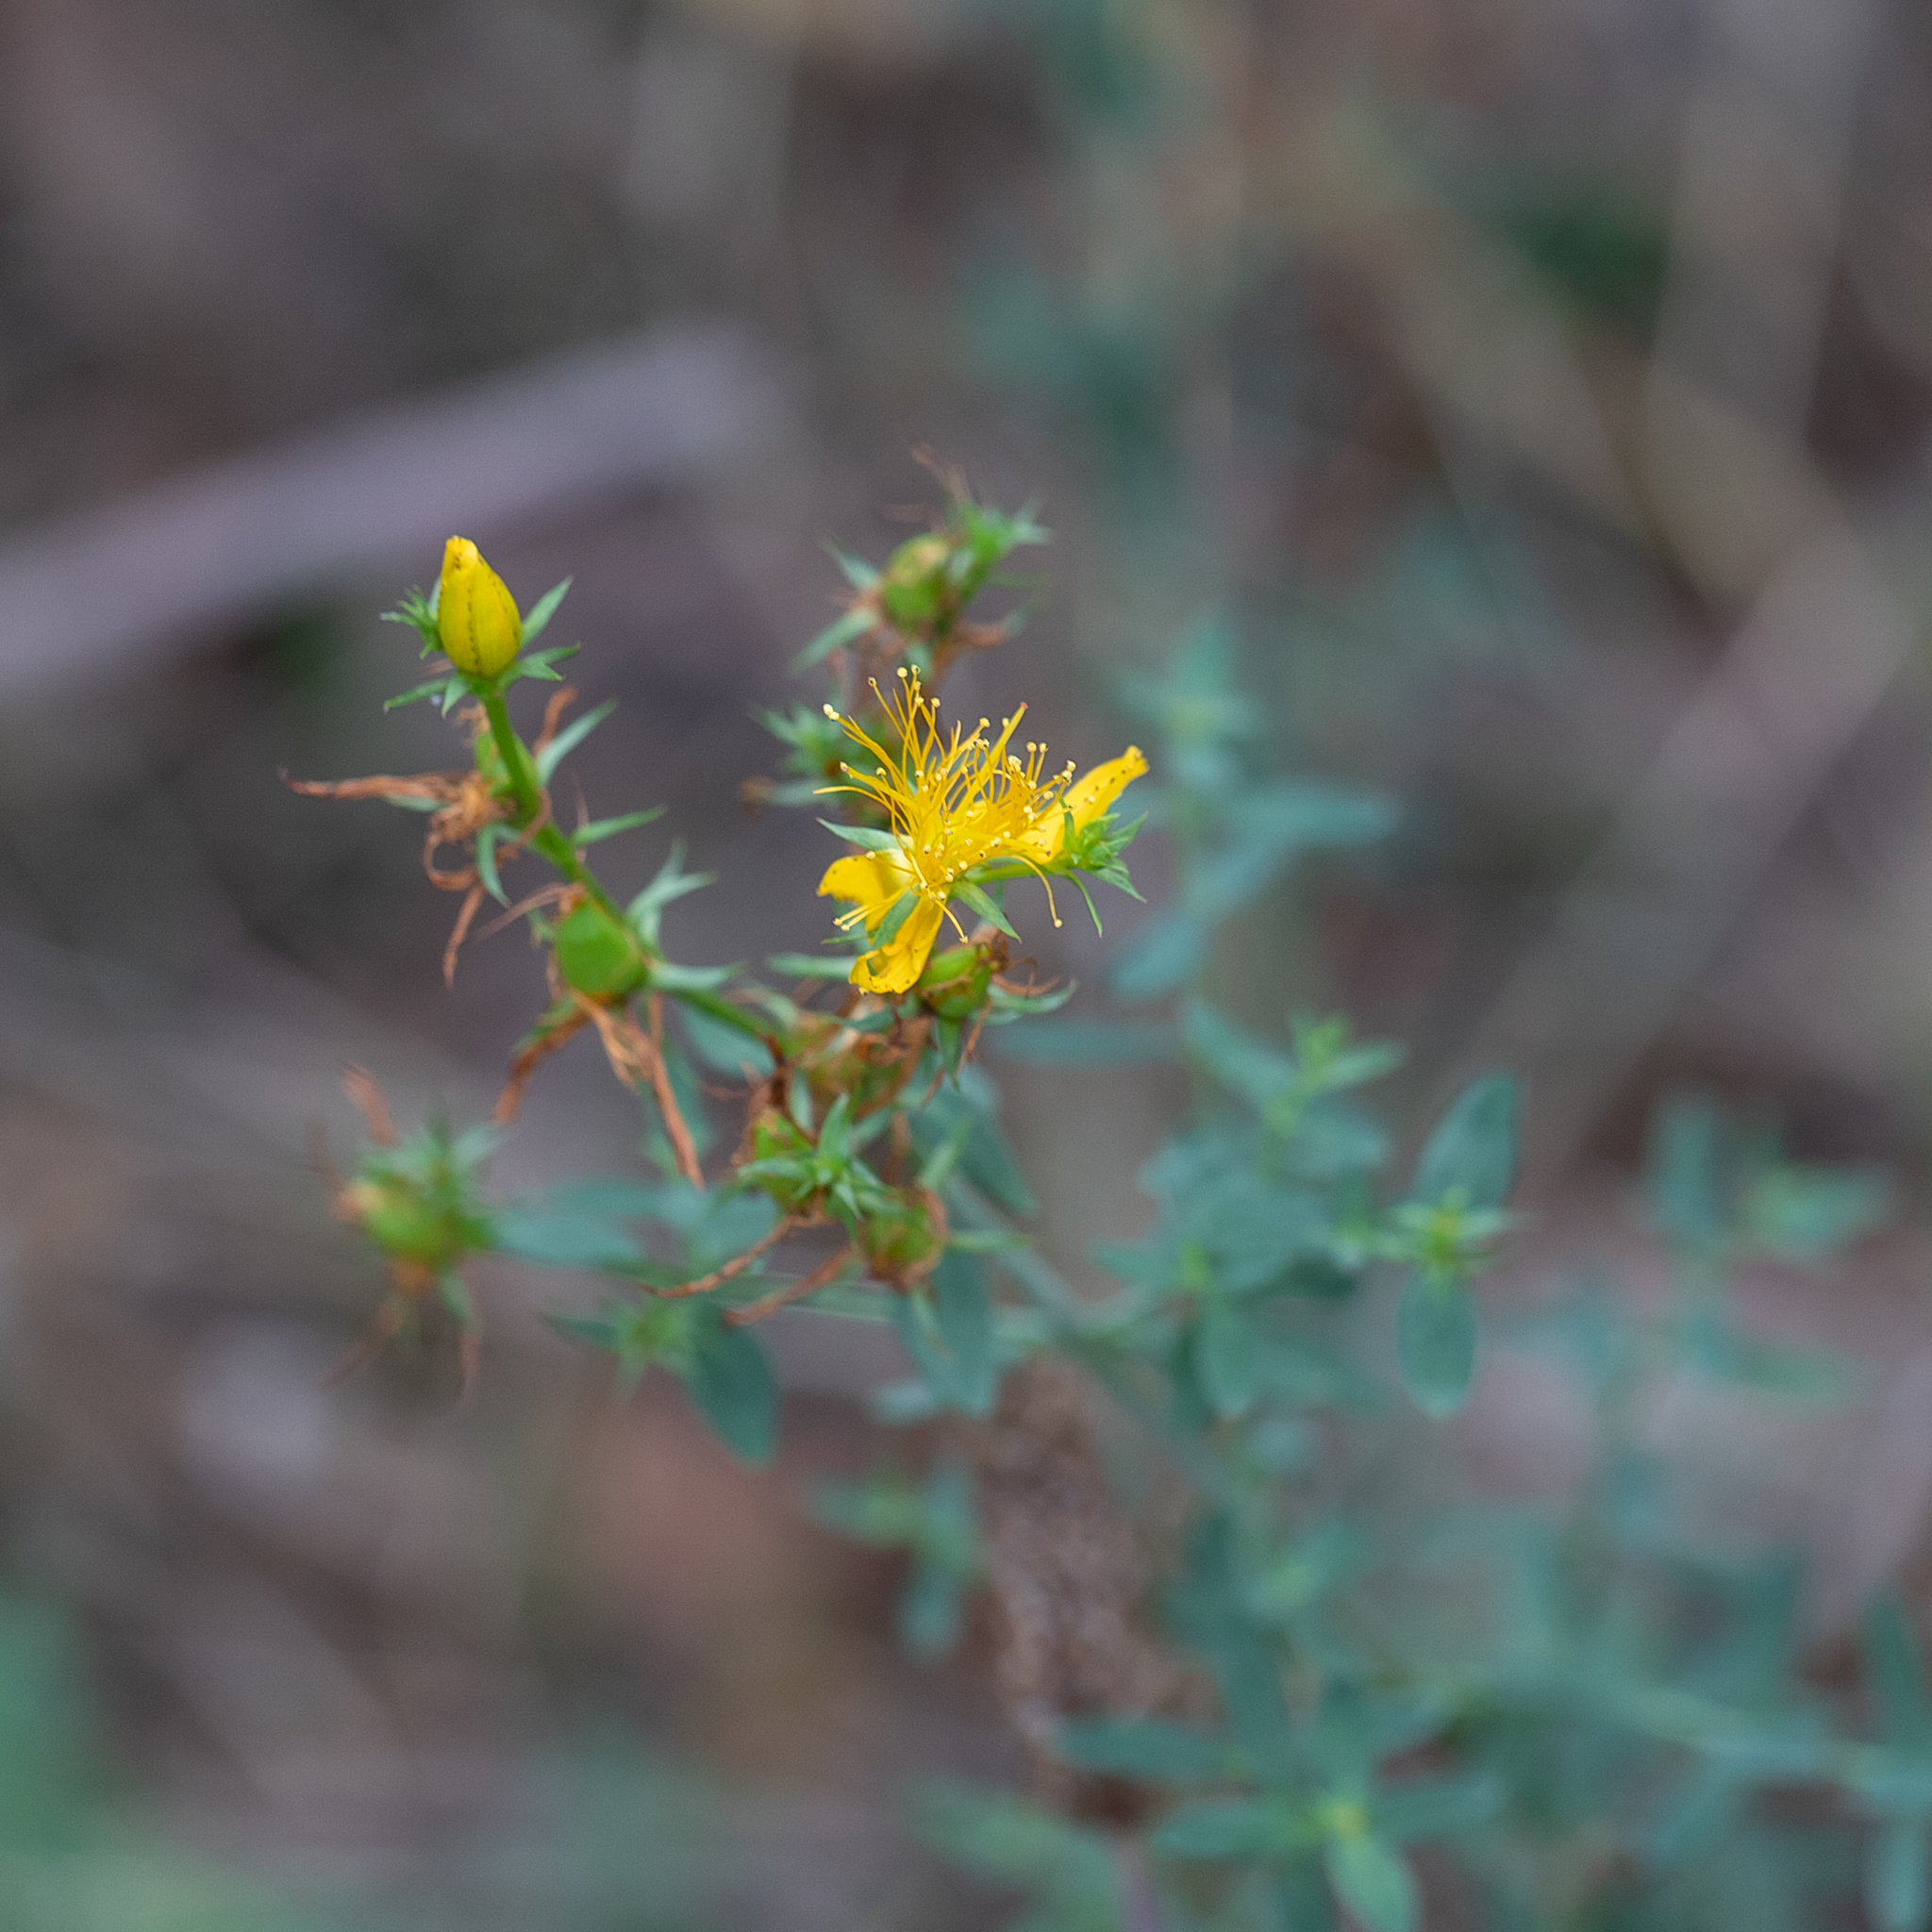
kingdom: Plantae
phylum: Tracheophyta
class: Magnoliopsida
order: Malpighiales
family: Hypericaceae
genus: Hypericum
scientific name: Hypericum perforatum
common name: Common st. johnswort
